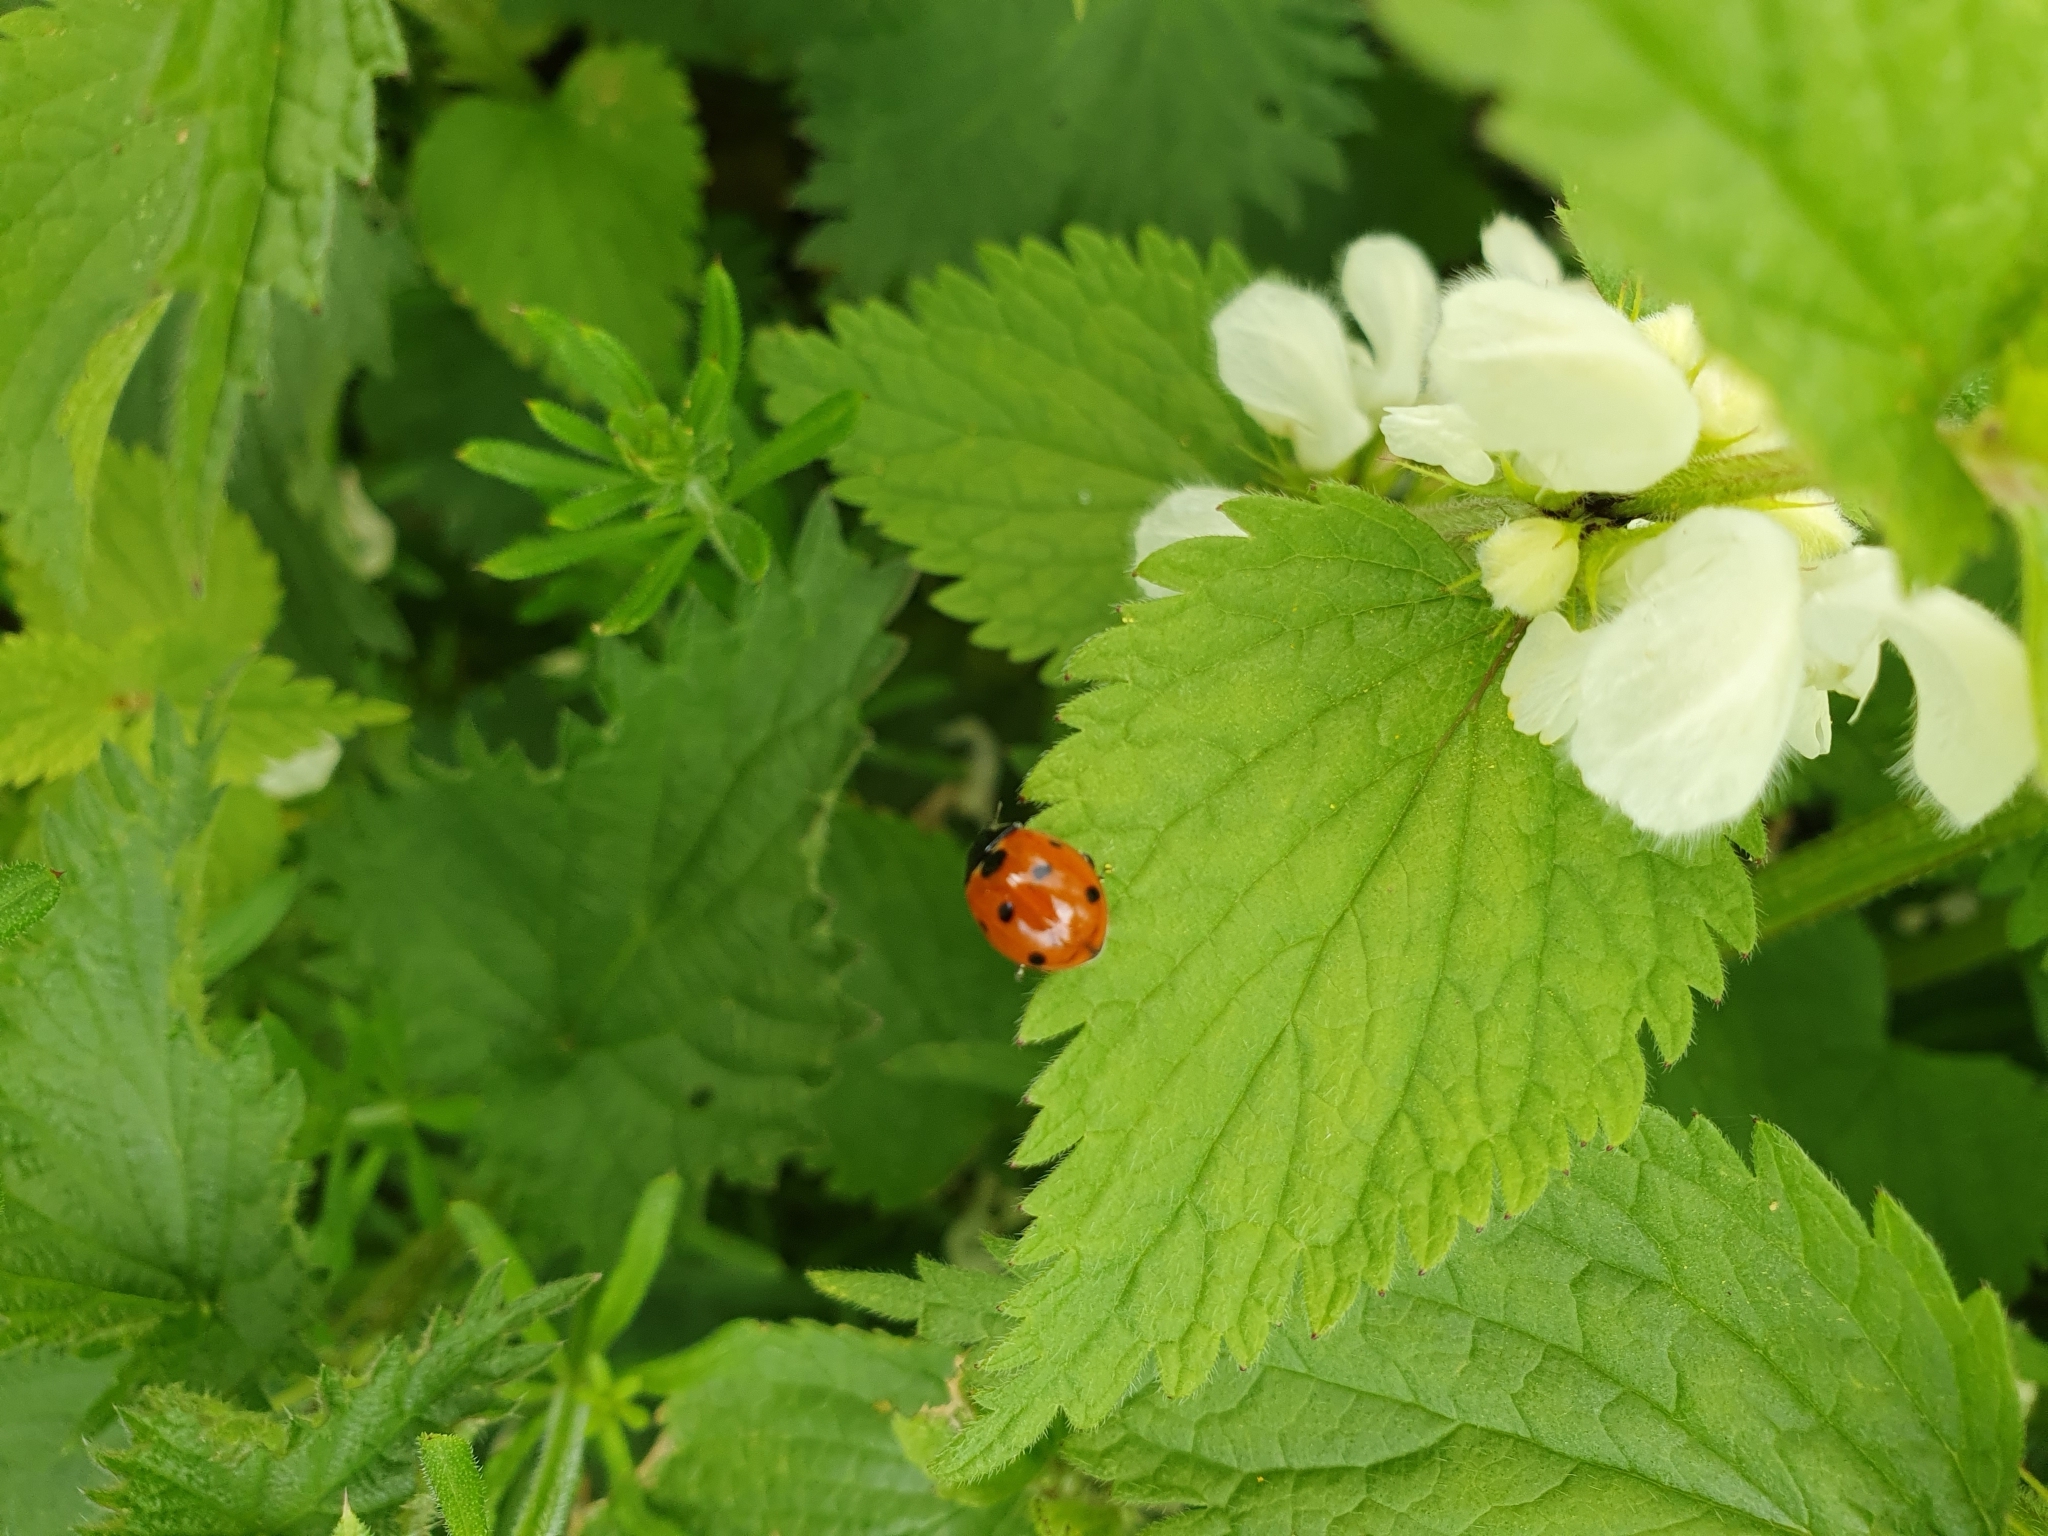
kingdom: Animalia
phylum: Arthropoda
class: Insecta
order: Coleoptera
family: Coccinellidae
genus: Coccinella
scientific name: Coccinella septempunctata
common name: Sevenspotted lady beetle
